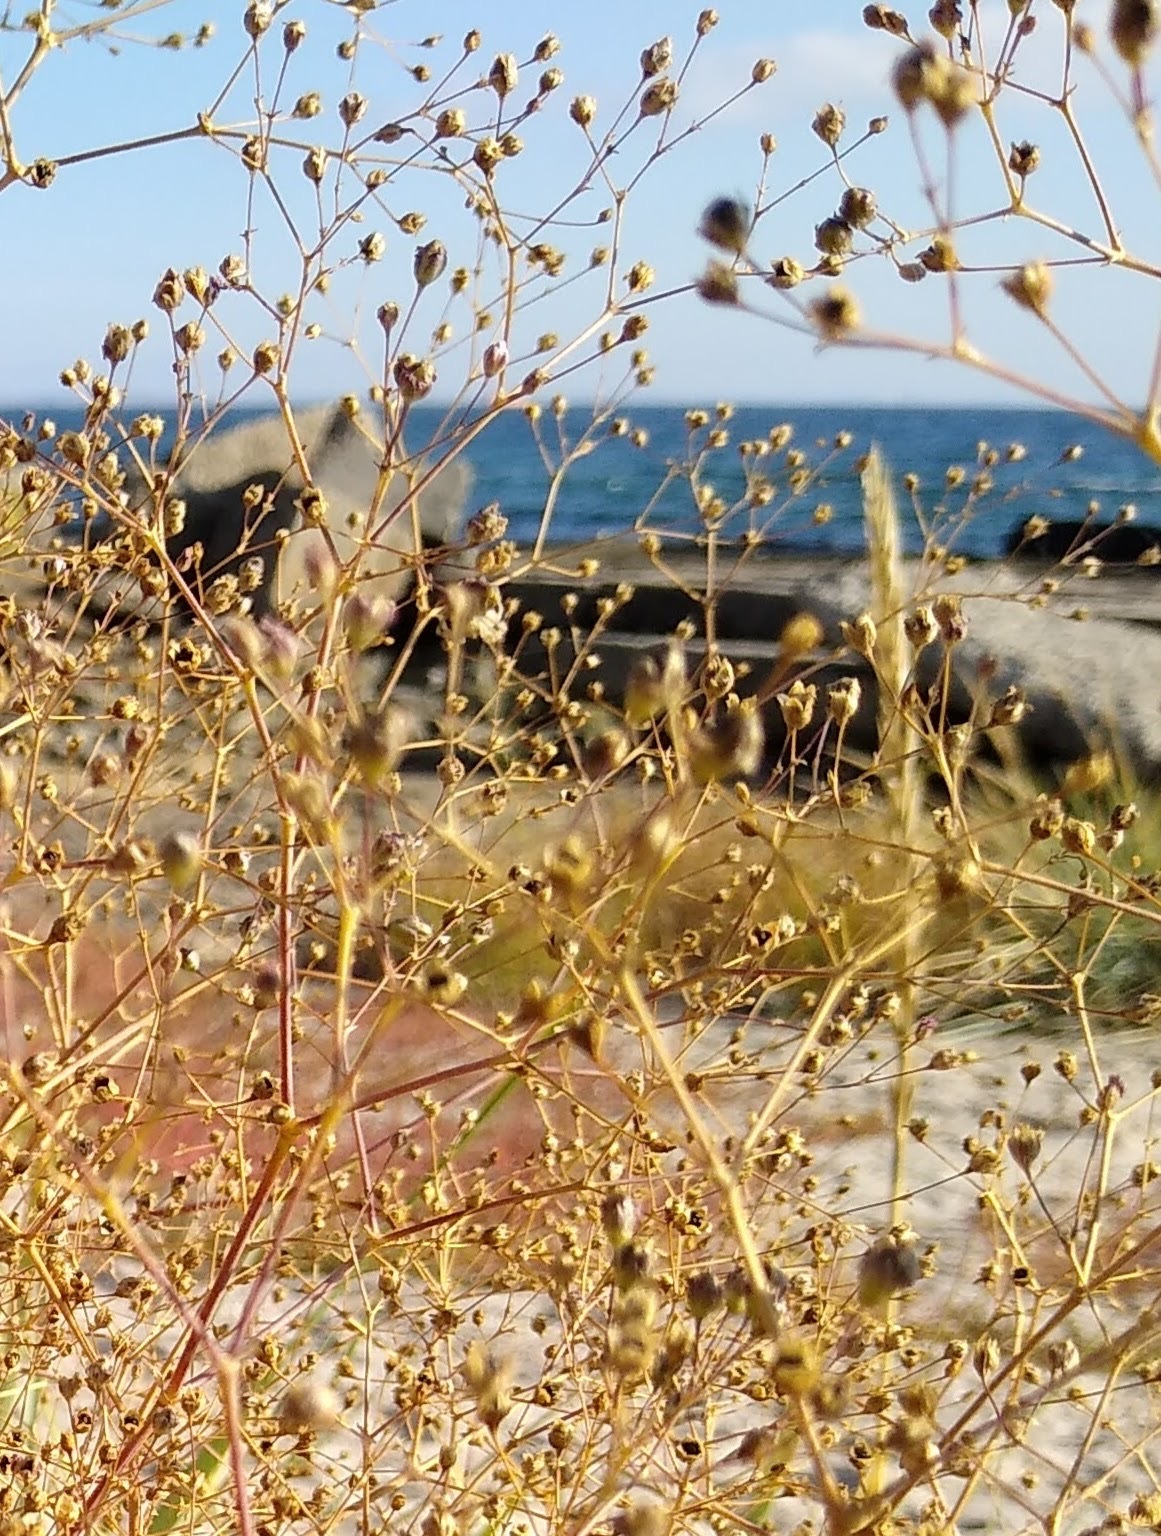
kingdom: Plantae
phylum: Tracheophyta
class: Magnoliopsida
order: Caryophyllales
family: Caryophyllaceae
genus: Gypsophila
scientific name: Gypsophila perfoliata
